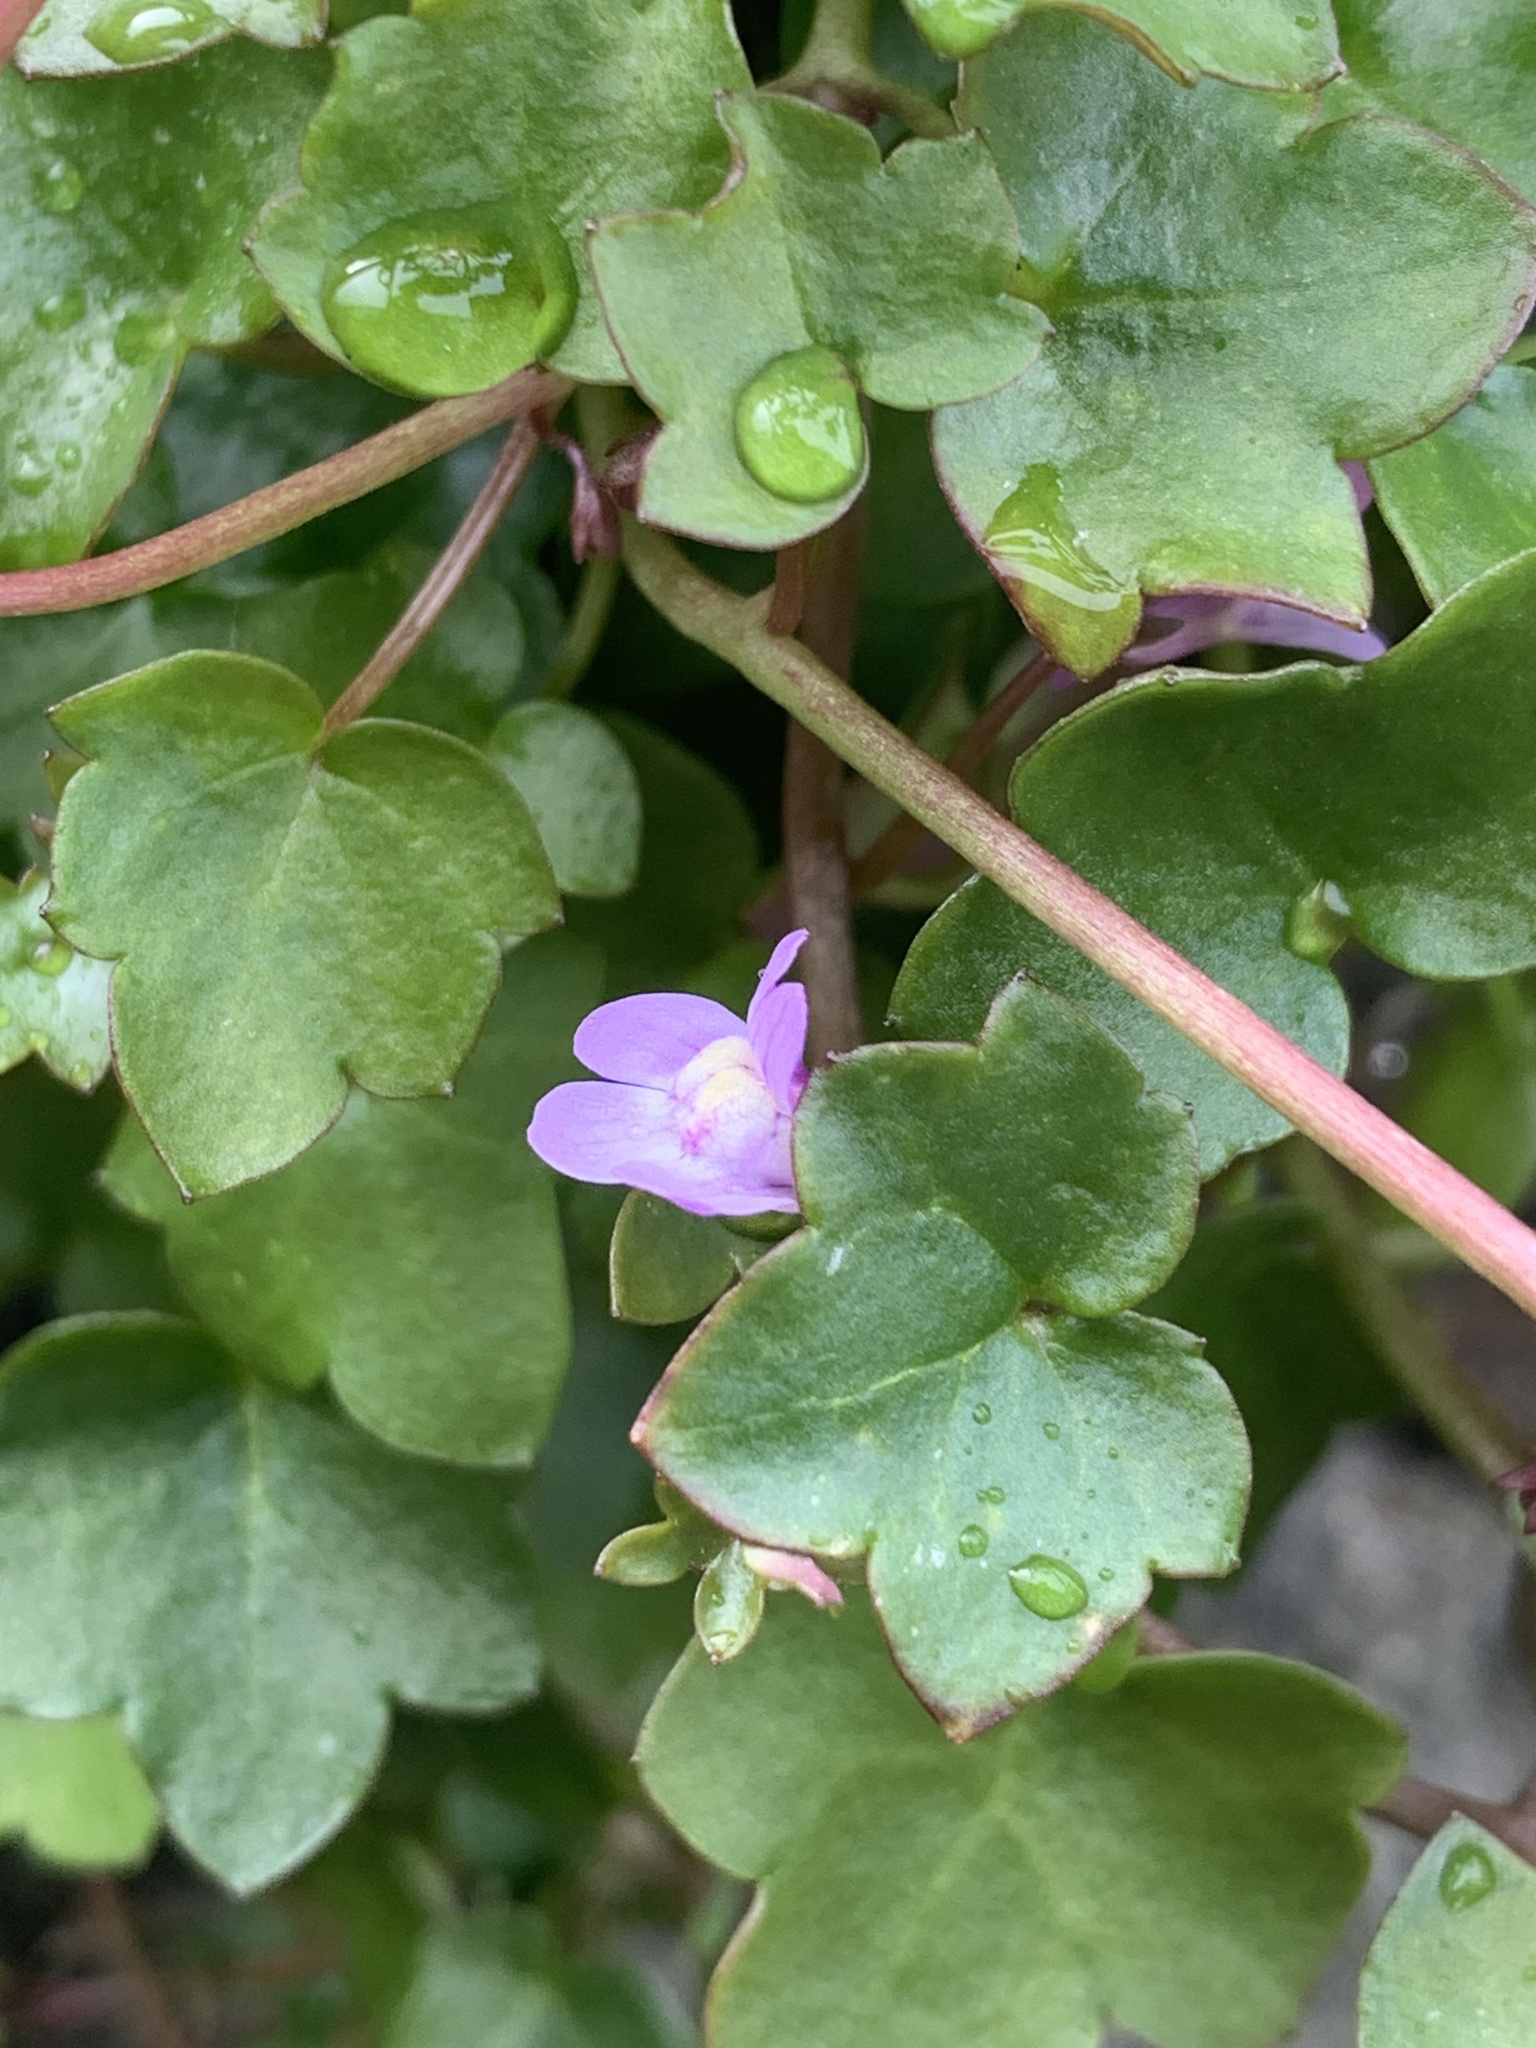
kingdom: Plantae
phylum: Tracheophyta
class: Magnoliopsida
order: Lamiales
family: Plantaginaceae
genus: Cymbalaria
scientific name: Cymbalaria muralis
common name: Ivy-leaved toadflax
